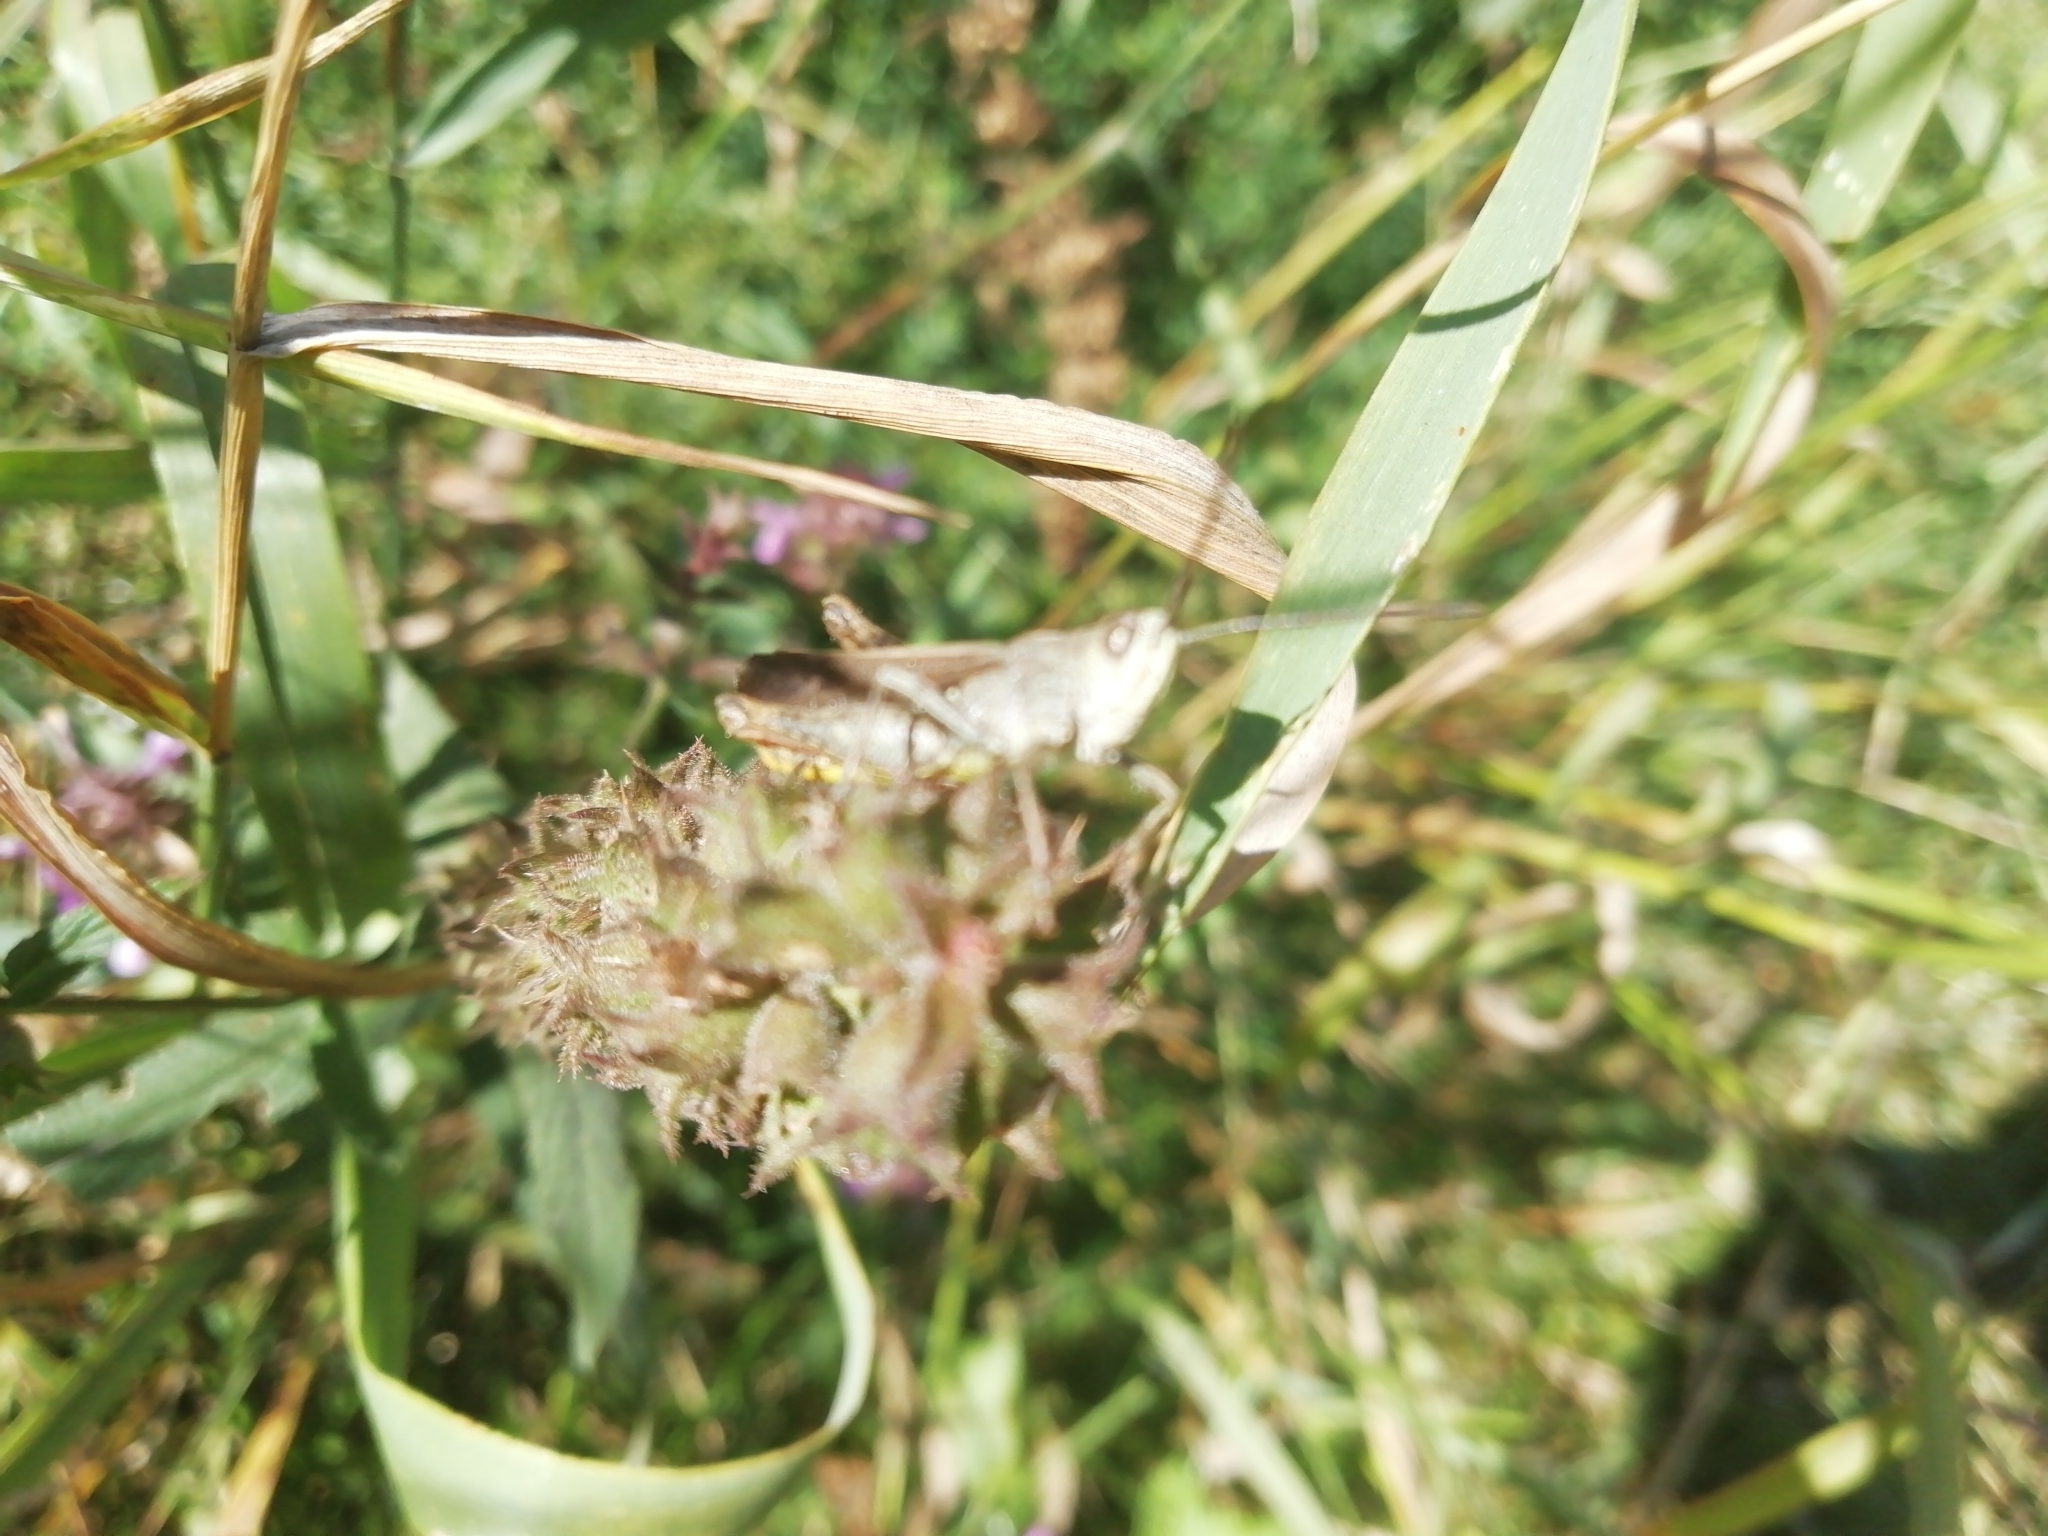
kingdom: Animalia
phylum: Arthropoda
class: Insecta
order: Orthoptera
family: Acrididae
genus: Chorthippus
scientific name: Chorthippus biguttulus
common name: Bow-winged grasshopper
